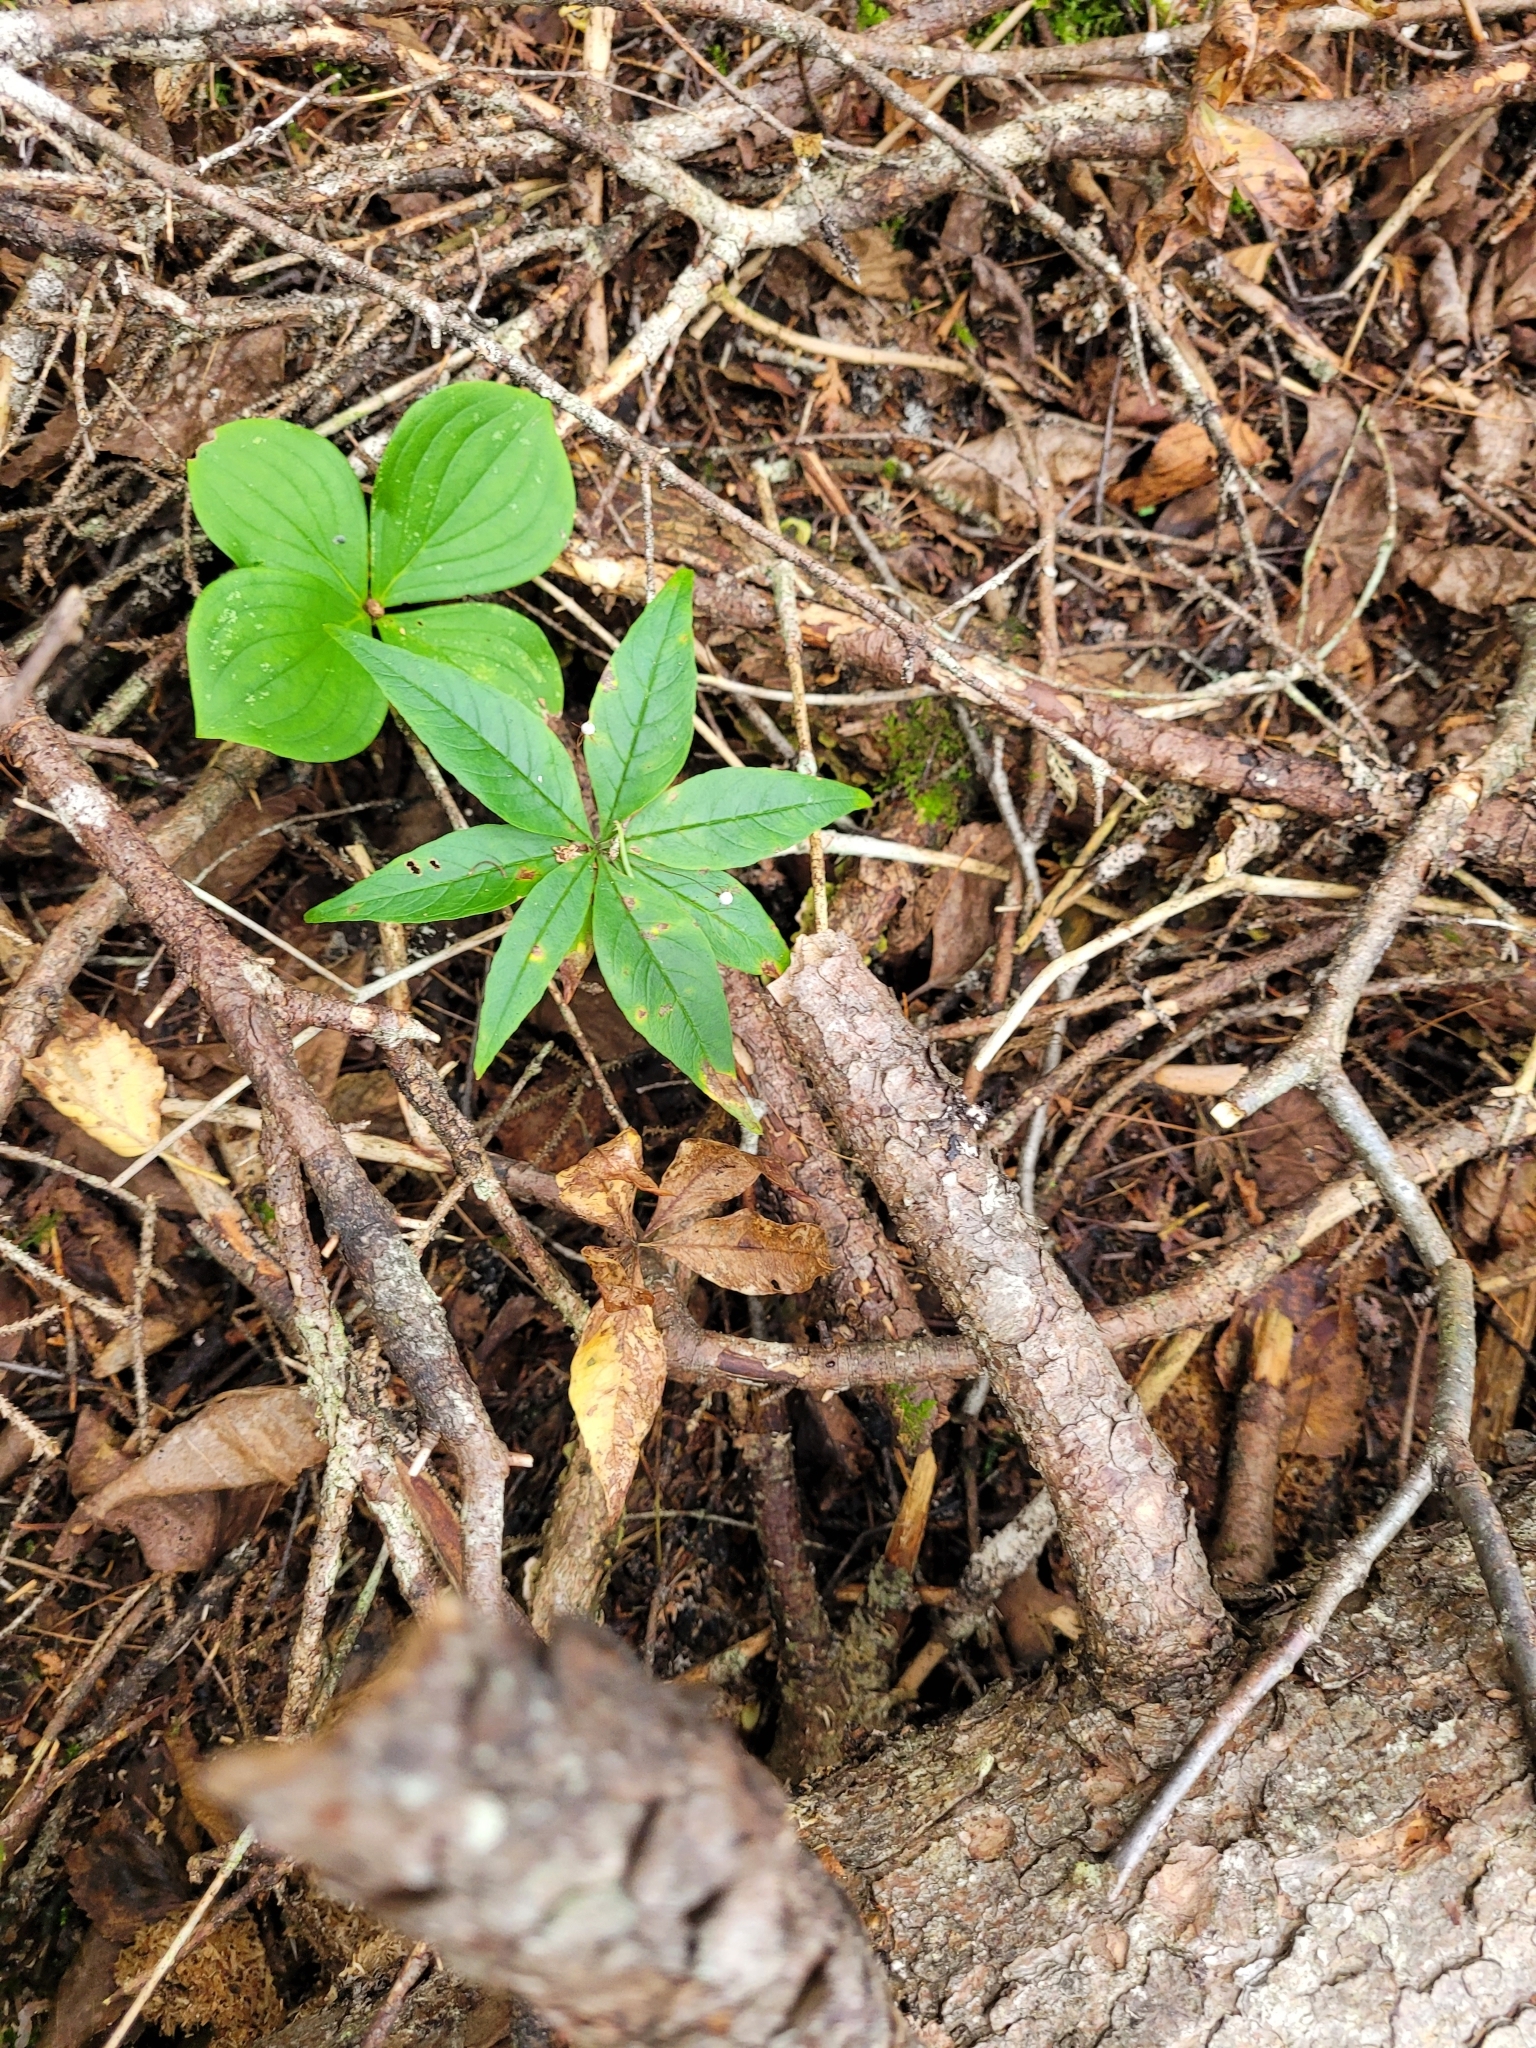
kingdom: Plantae
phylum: Tracheophyta
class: Magnoliopsida
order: Ericales
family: Primulaceae
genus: Lysimachia
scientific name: Lysimachia borealis
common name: American starflower
